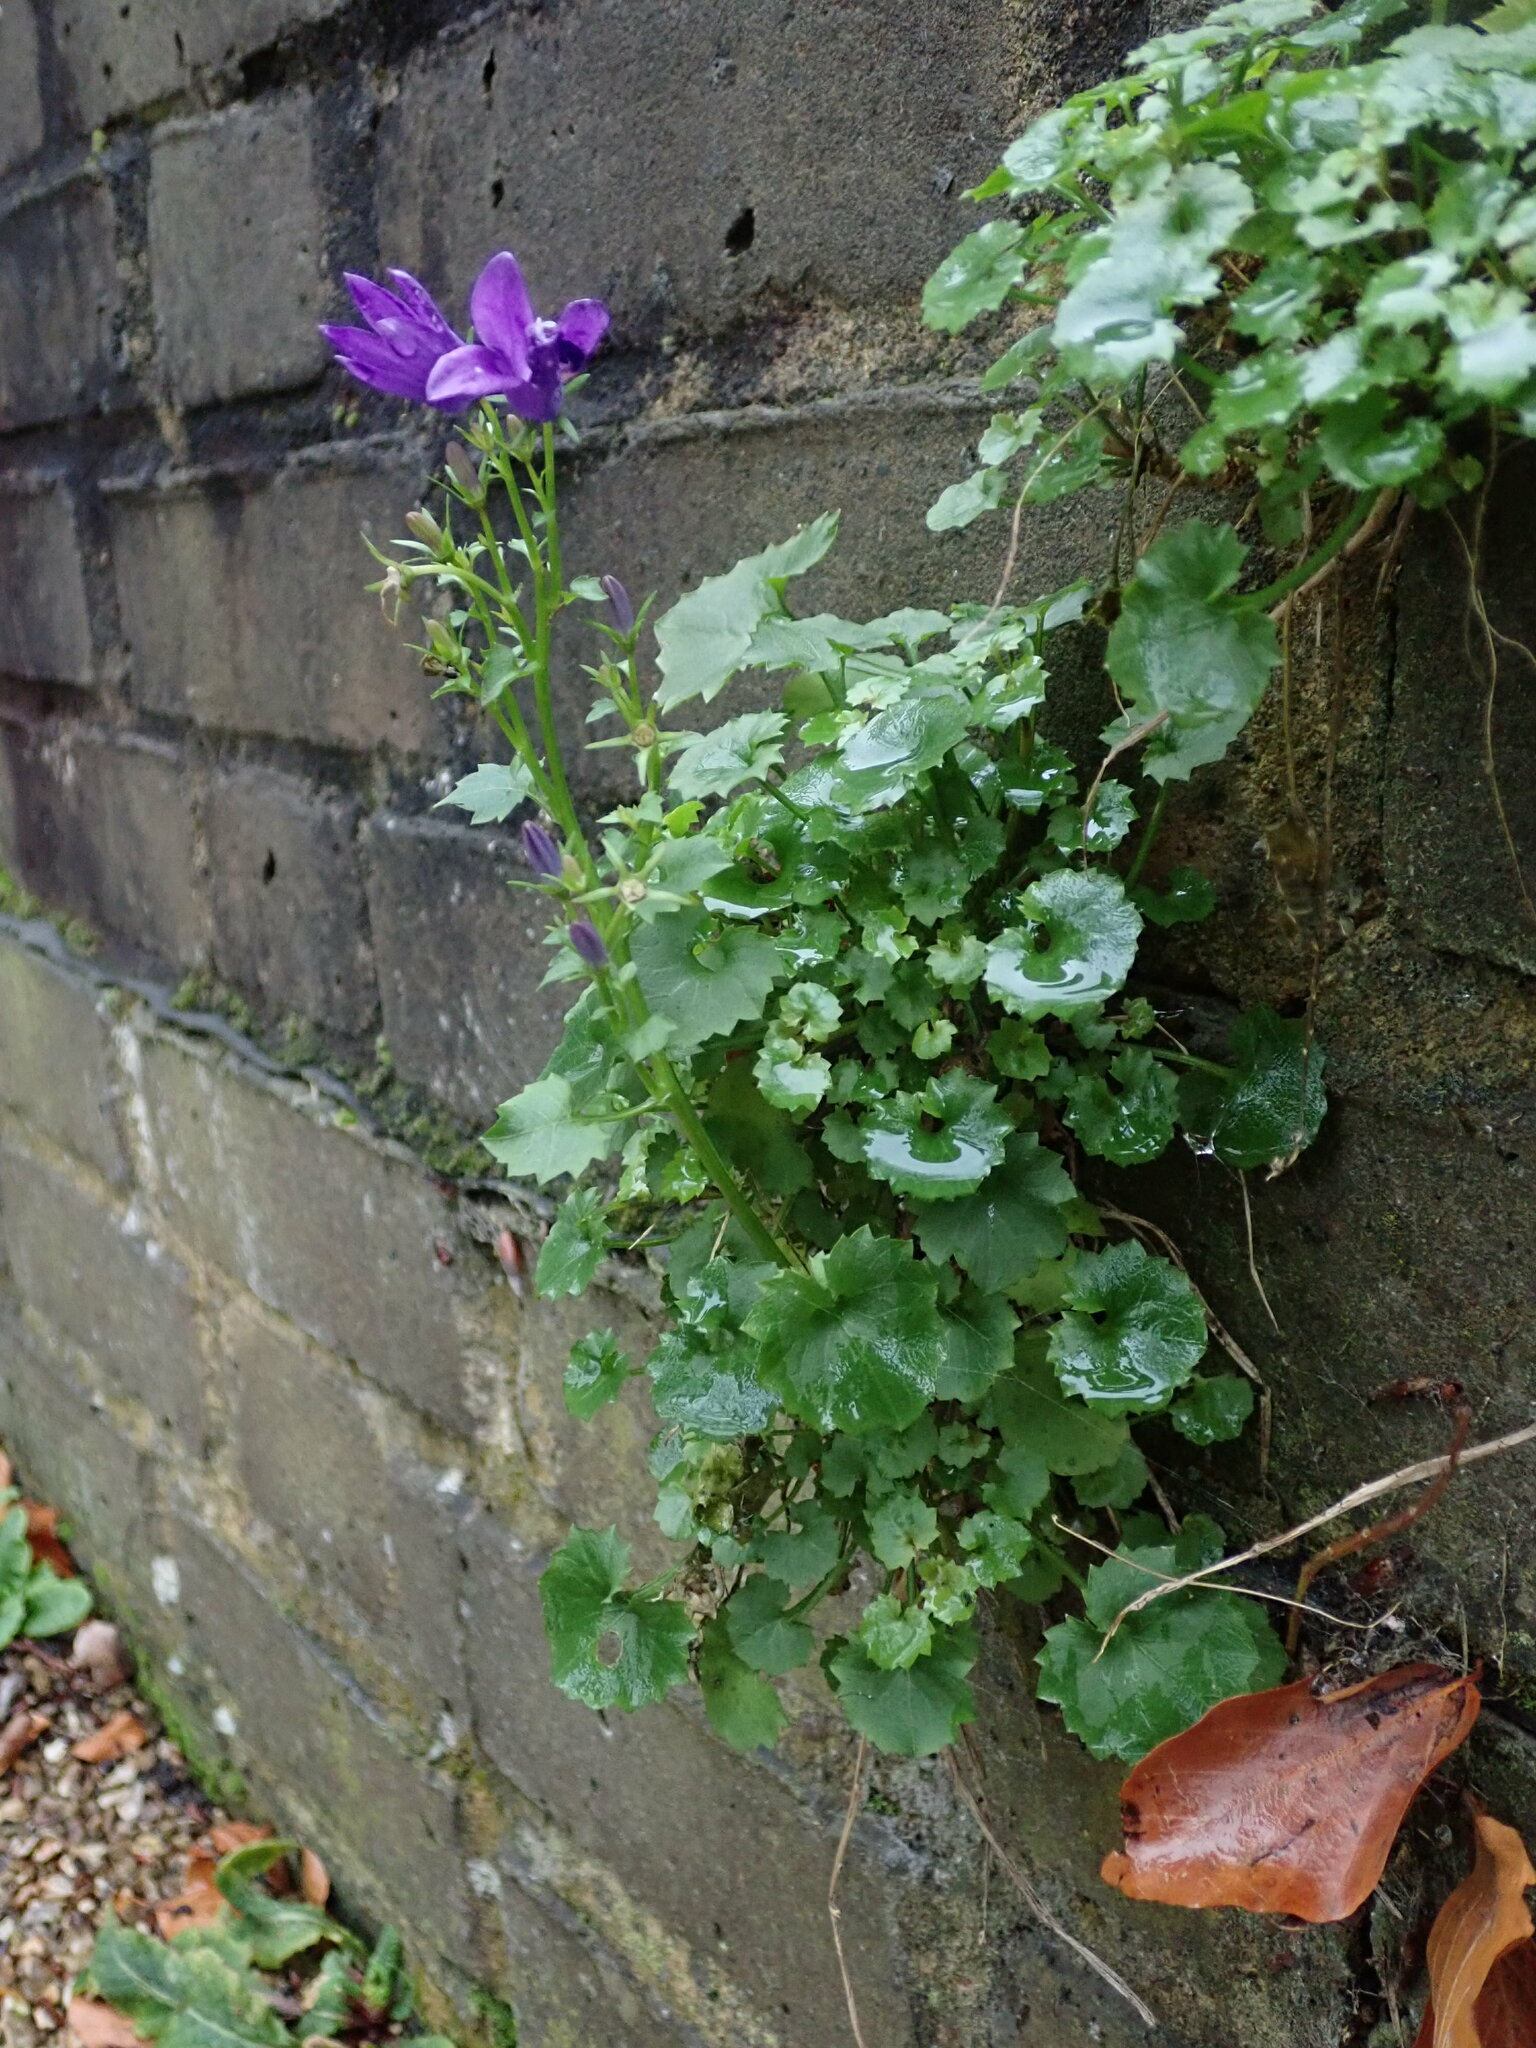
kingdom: Plantae
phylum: Tracheophyta
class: Magnoliopsida
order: Asterales
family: Campanulaceae
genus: Campanula
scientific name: Campanula portenschlagiana
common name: Adria bellflower
